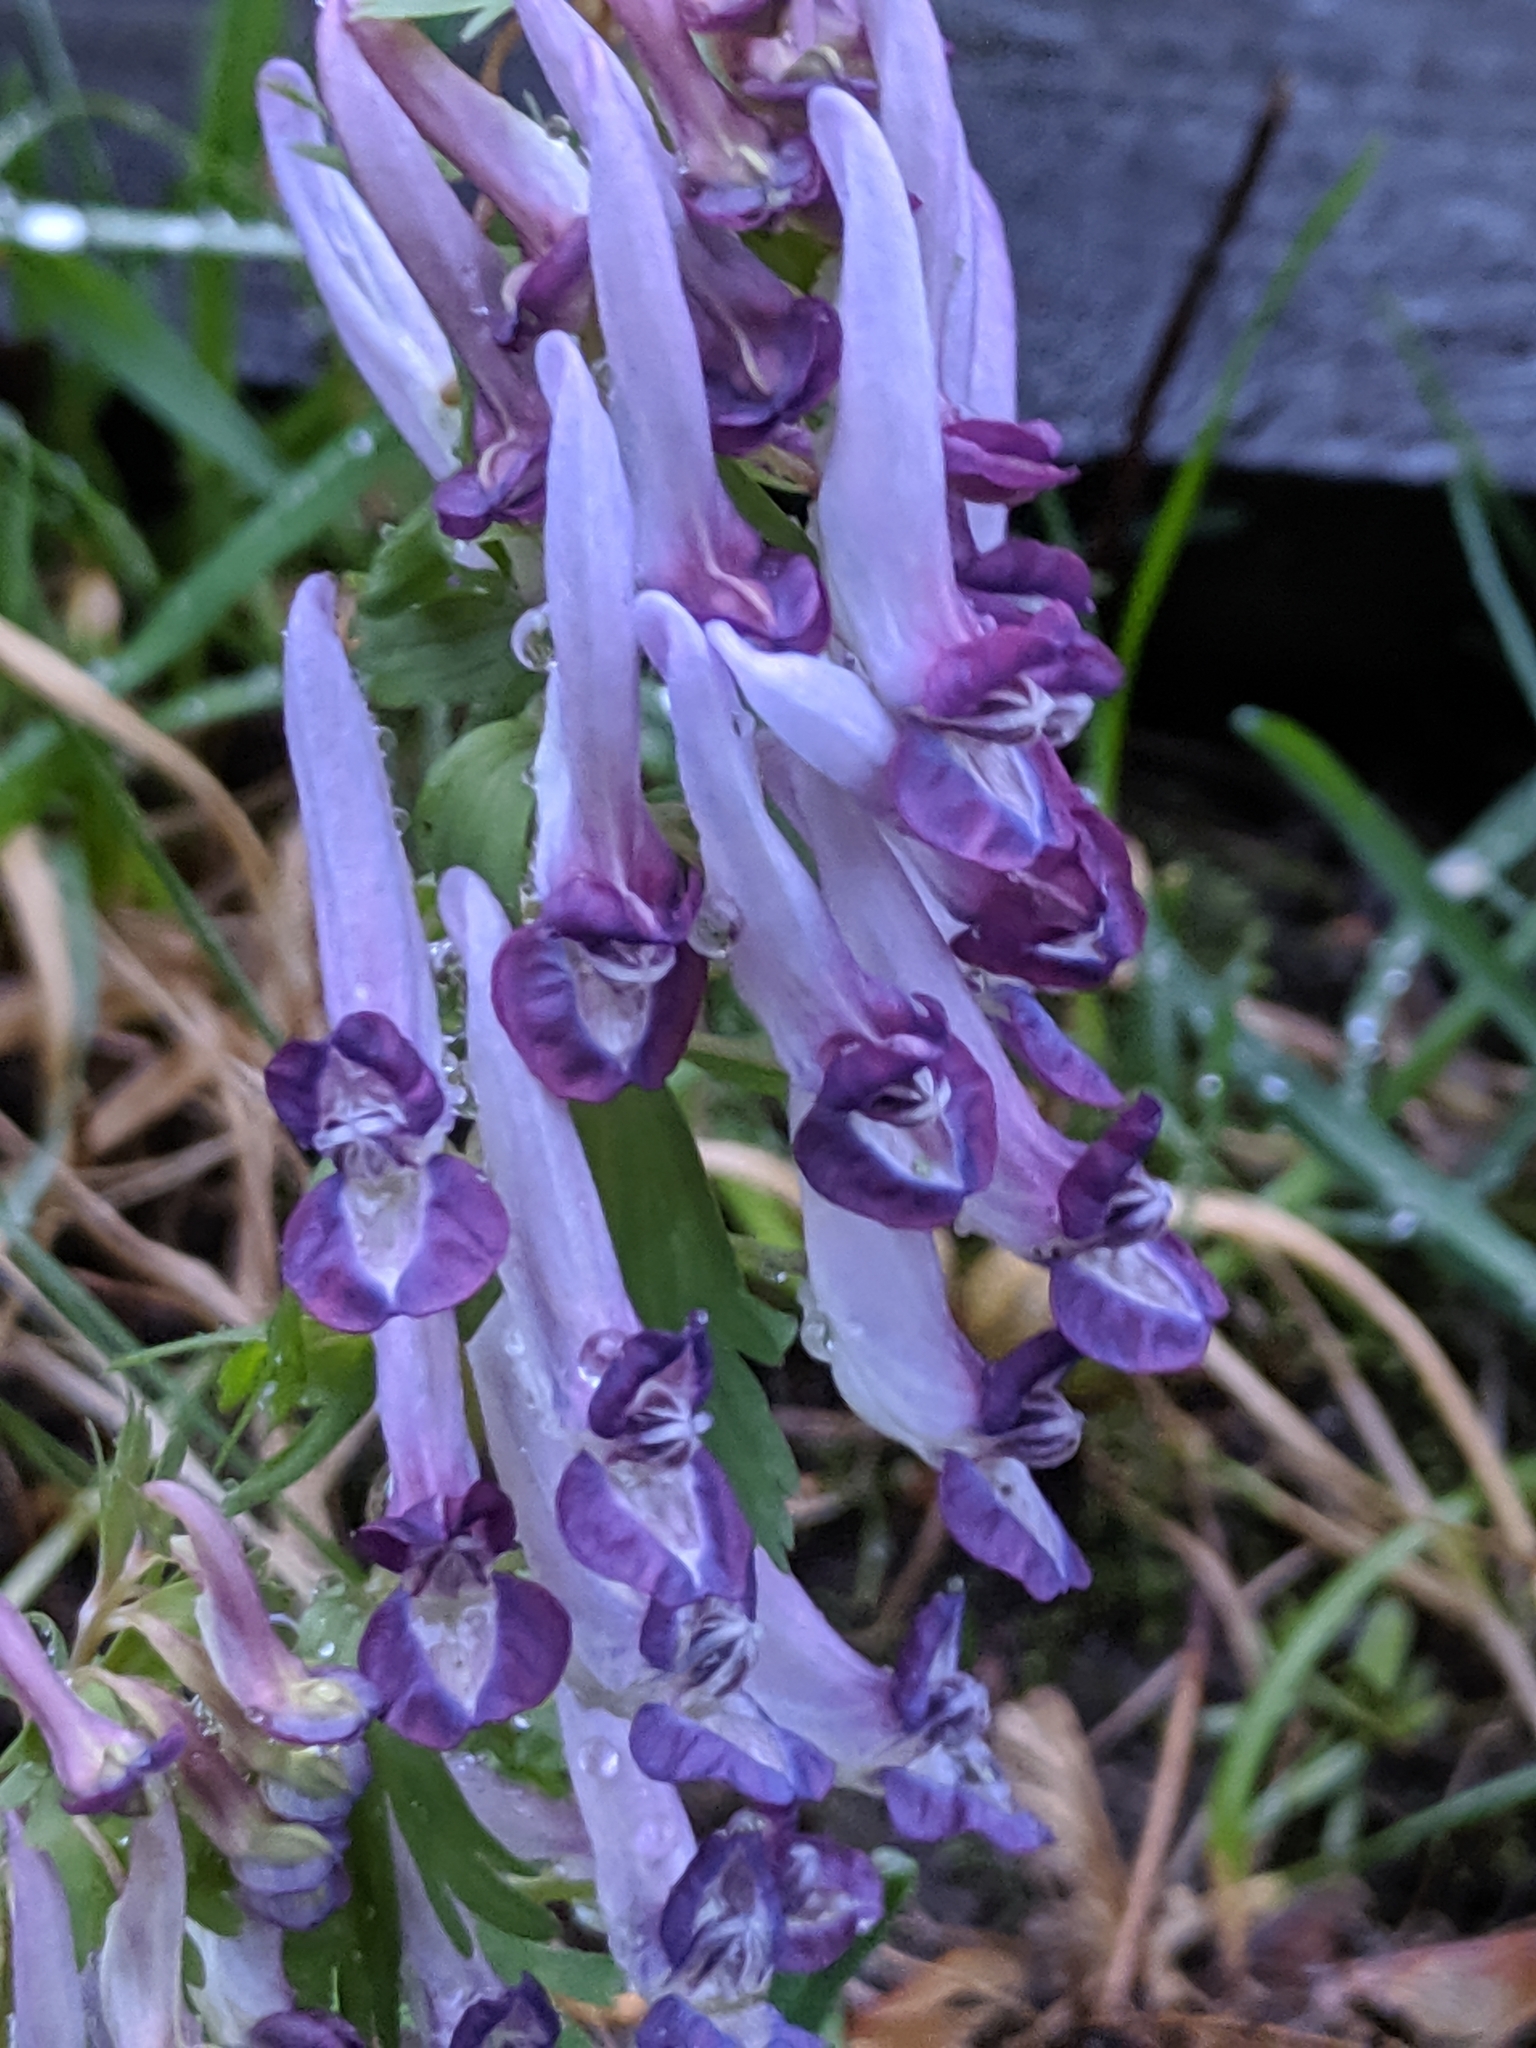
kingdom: Plantae
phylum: Tracheophyta
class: Magnoliopsida
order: Ranunculales
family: Papaveraceae
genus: Corydalis
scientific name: Corydalis solida
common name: Bird-in-a-bush
